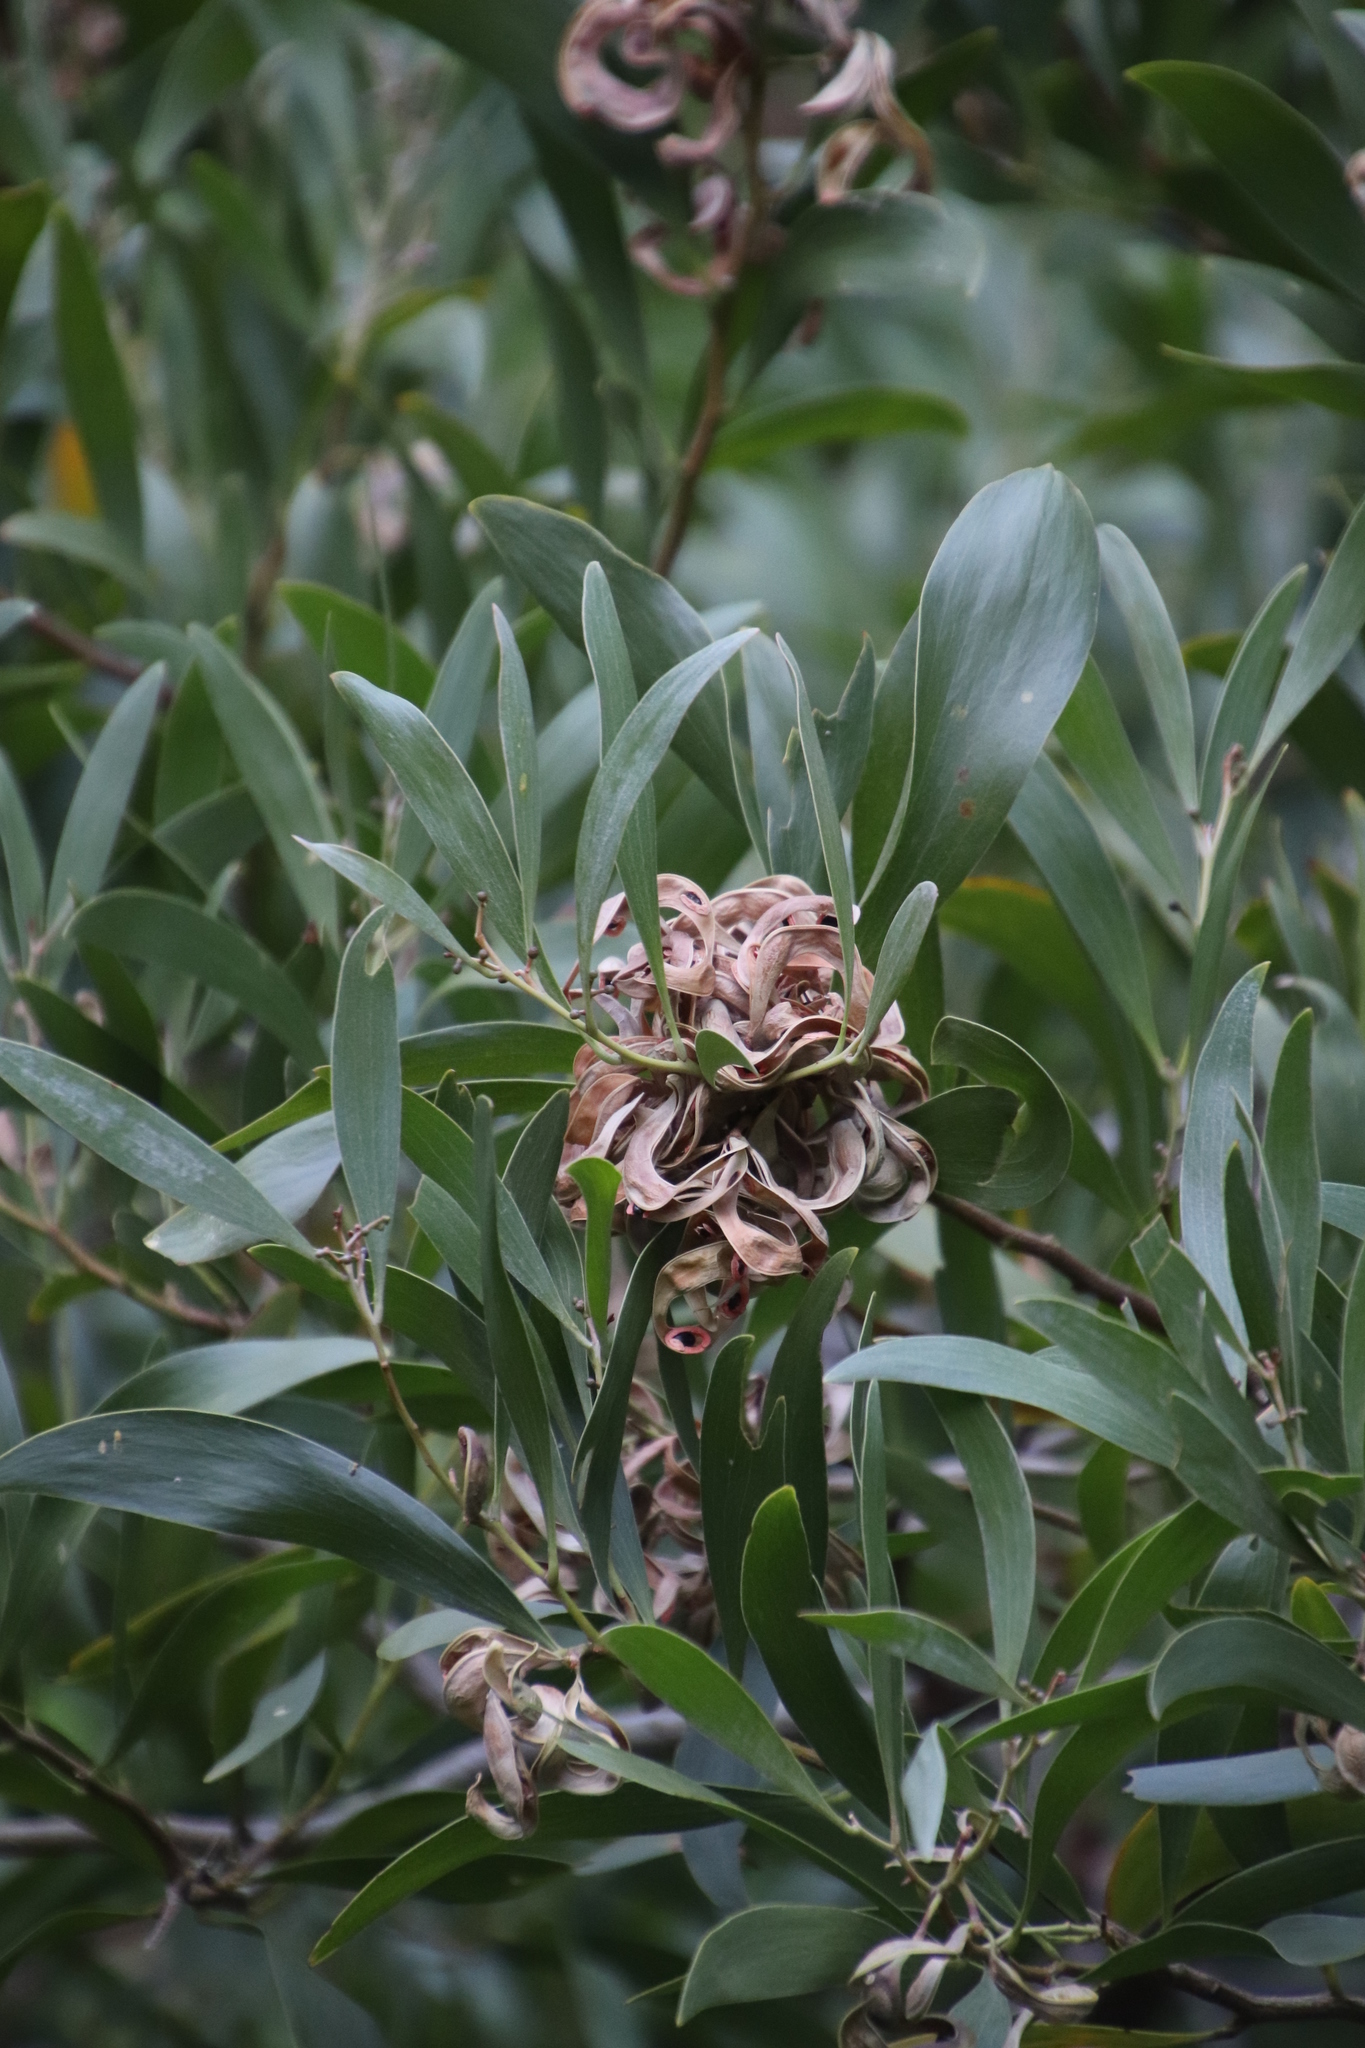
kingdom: Plantae
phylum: Tracheophyta
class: Magnoliopsida
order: Fabales
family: Fabaceae
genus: Acacia
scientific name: Acacia melanoxylon
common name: Blackwood
